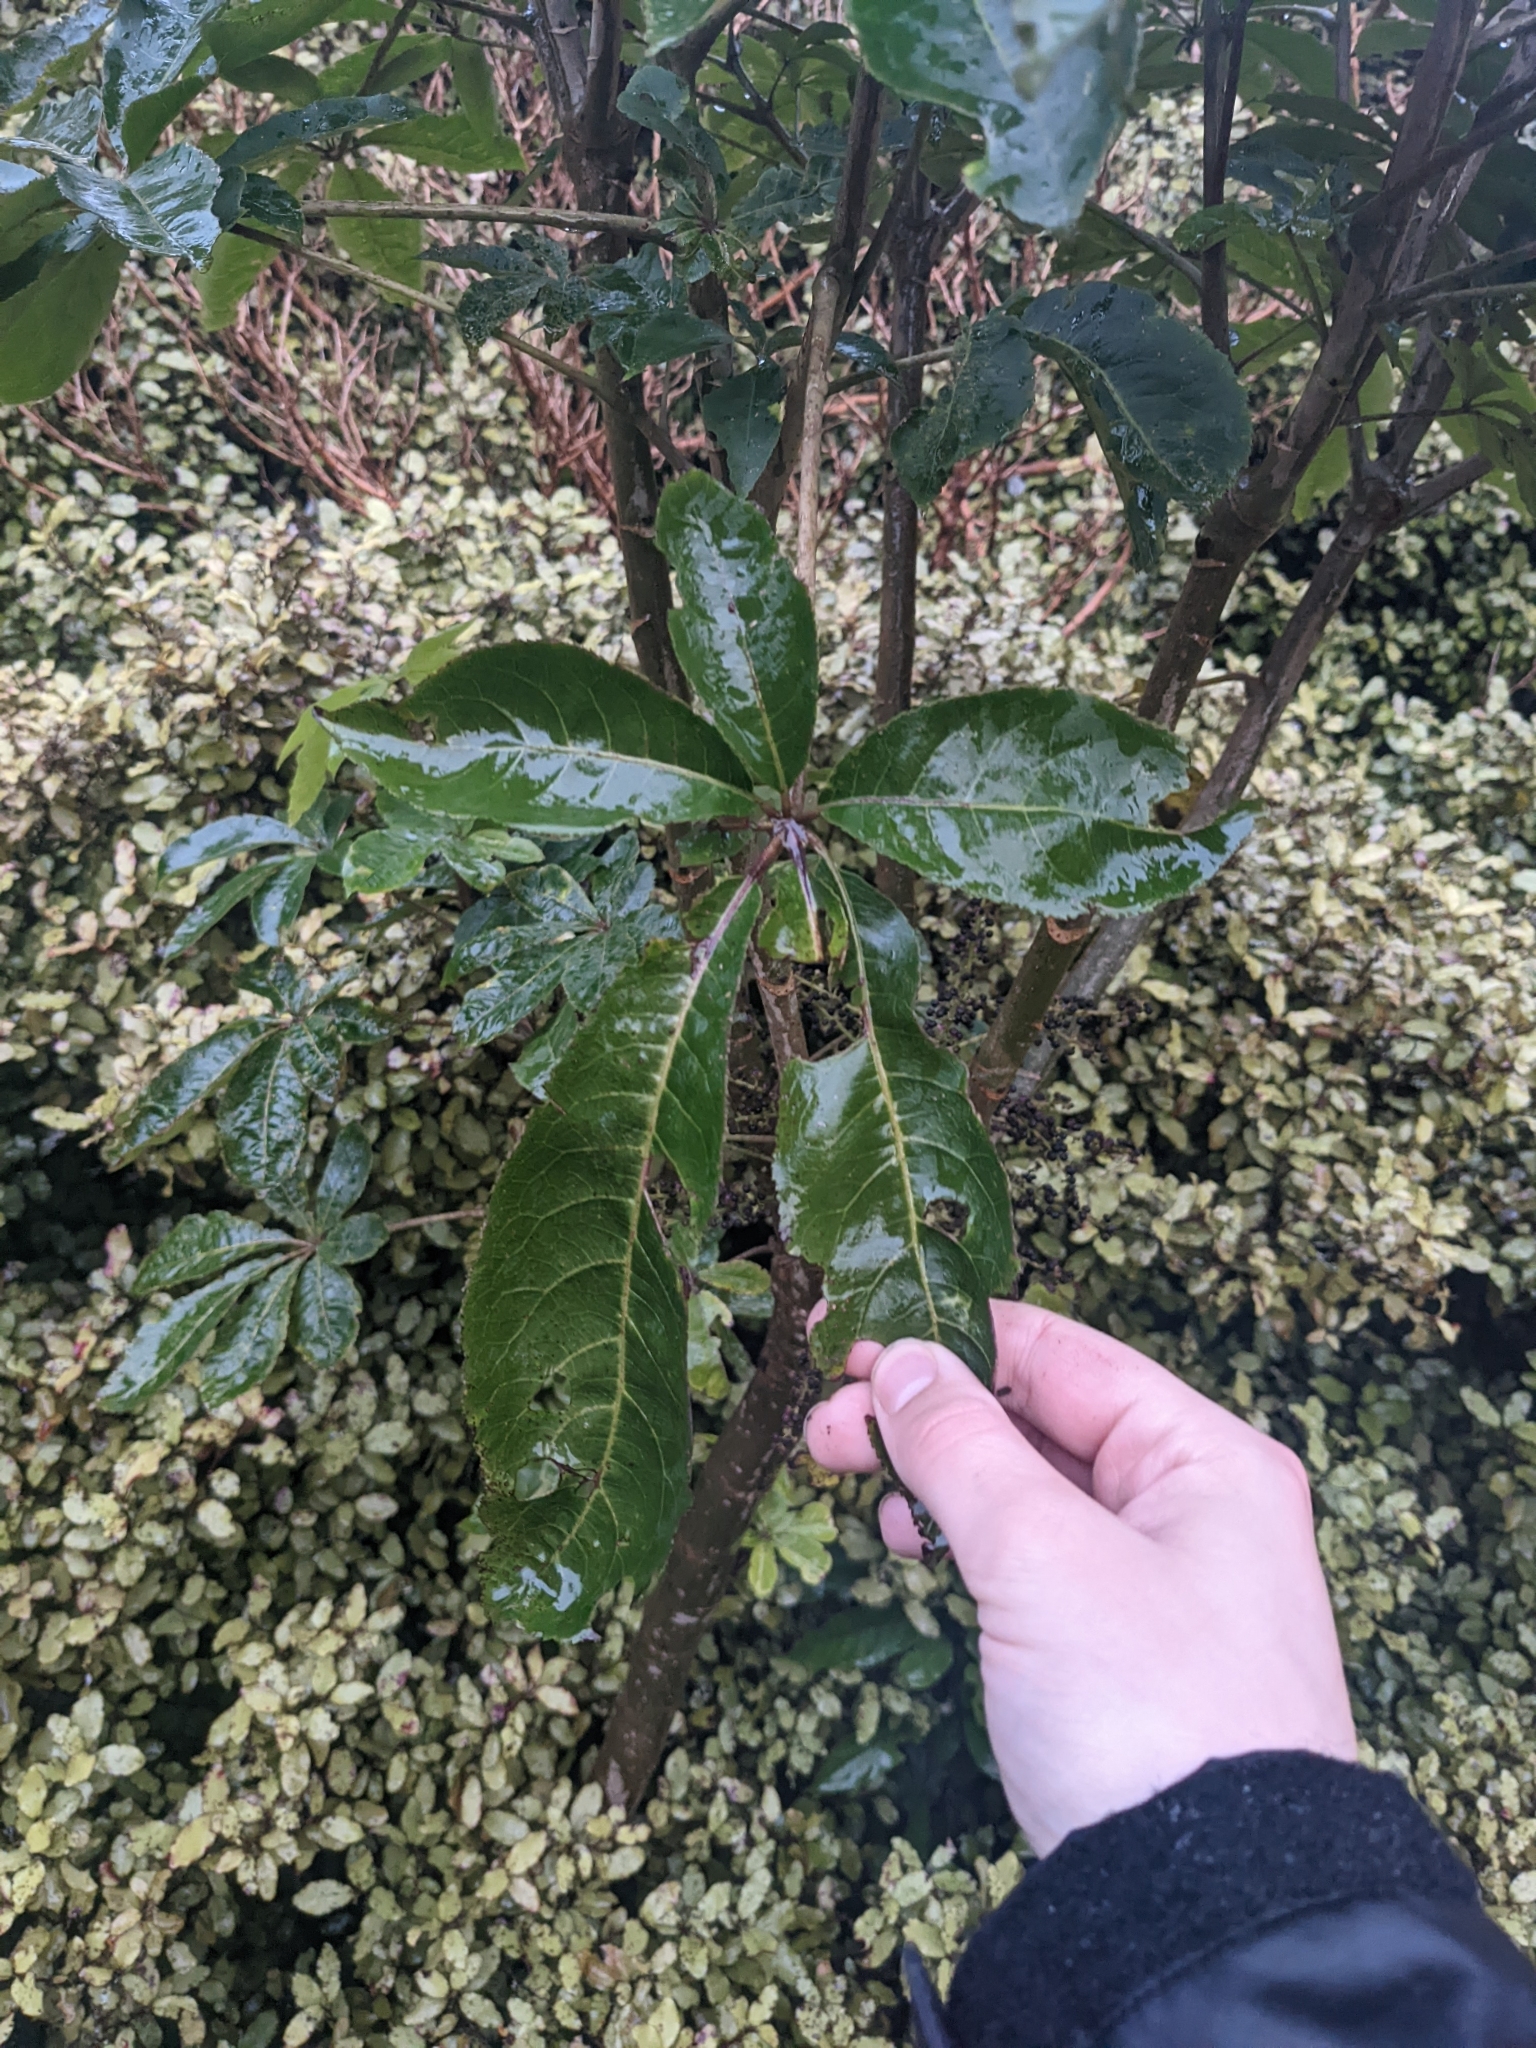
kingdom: Plantae
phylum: Tracheophyta
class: Magnoliopsida
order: Apiales
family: Araliaceae
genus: Schefflera
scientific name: Schefflera digitata
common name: Pate
